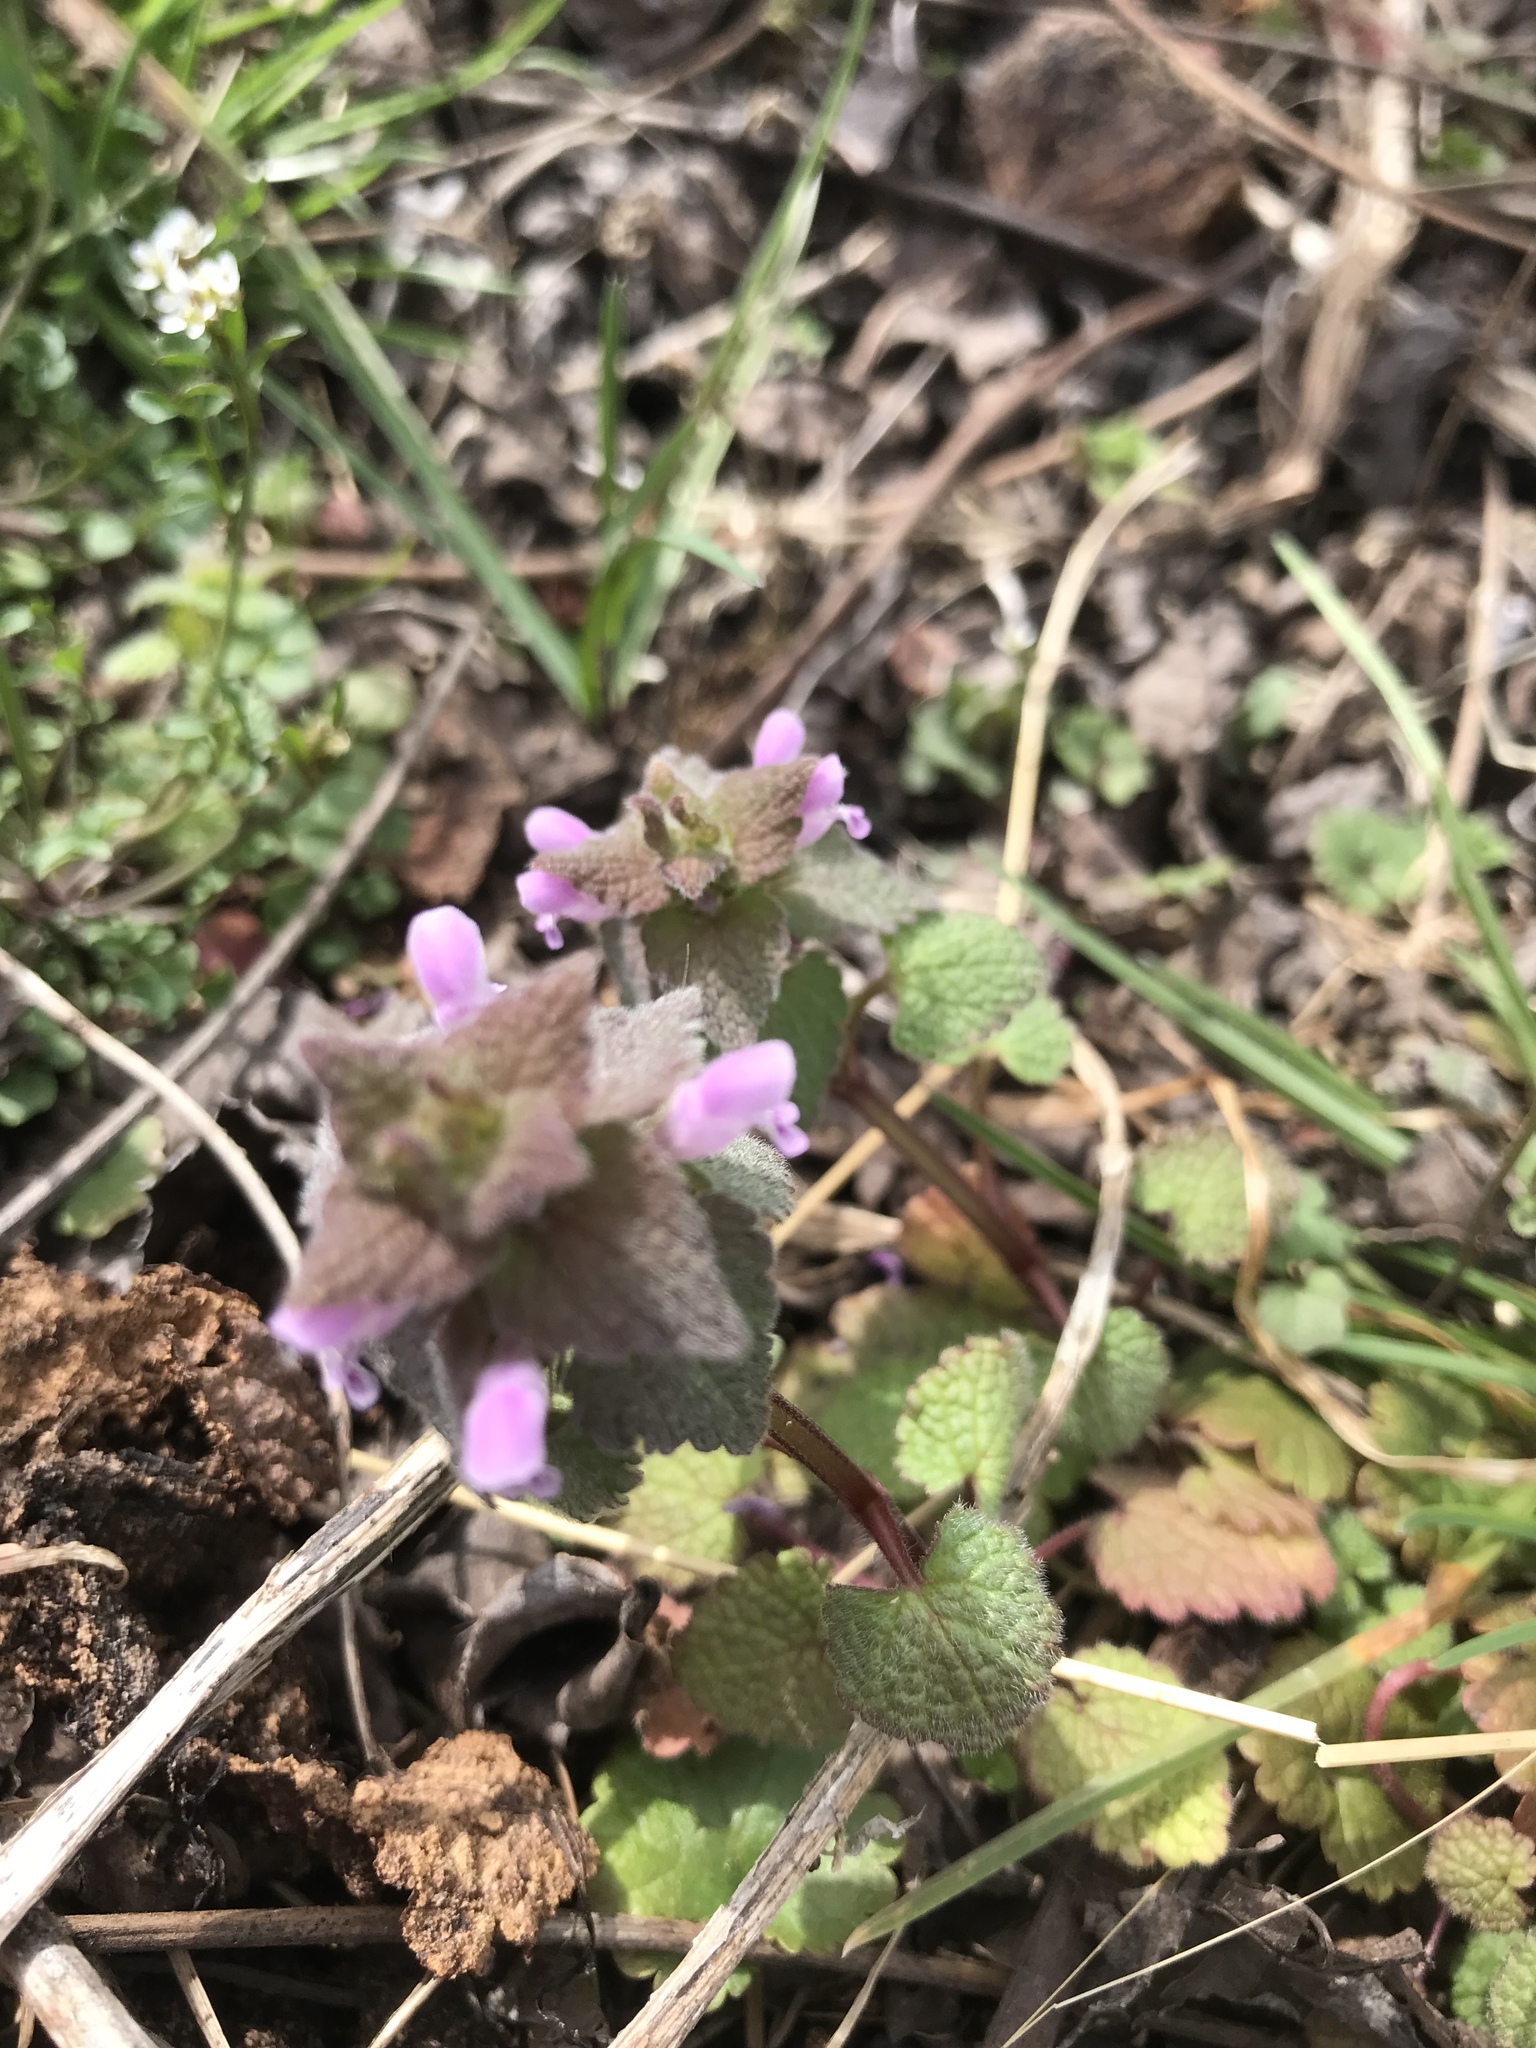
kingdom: Plantae
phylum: Tracheophyta
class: Magnoliopsida
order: Lamiales
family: Lamiaceae
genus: Lamium
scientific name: Lamium purpureum
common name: Red dead-nettle
